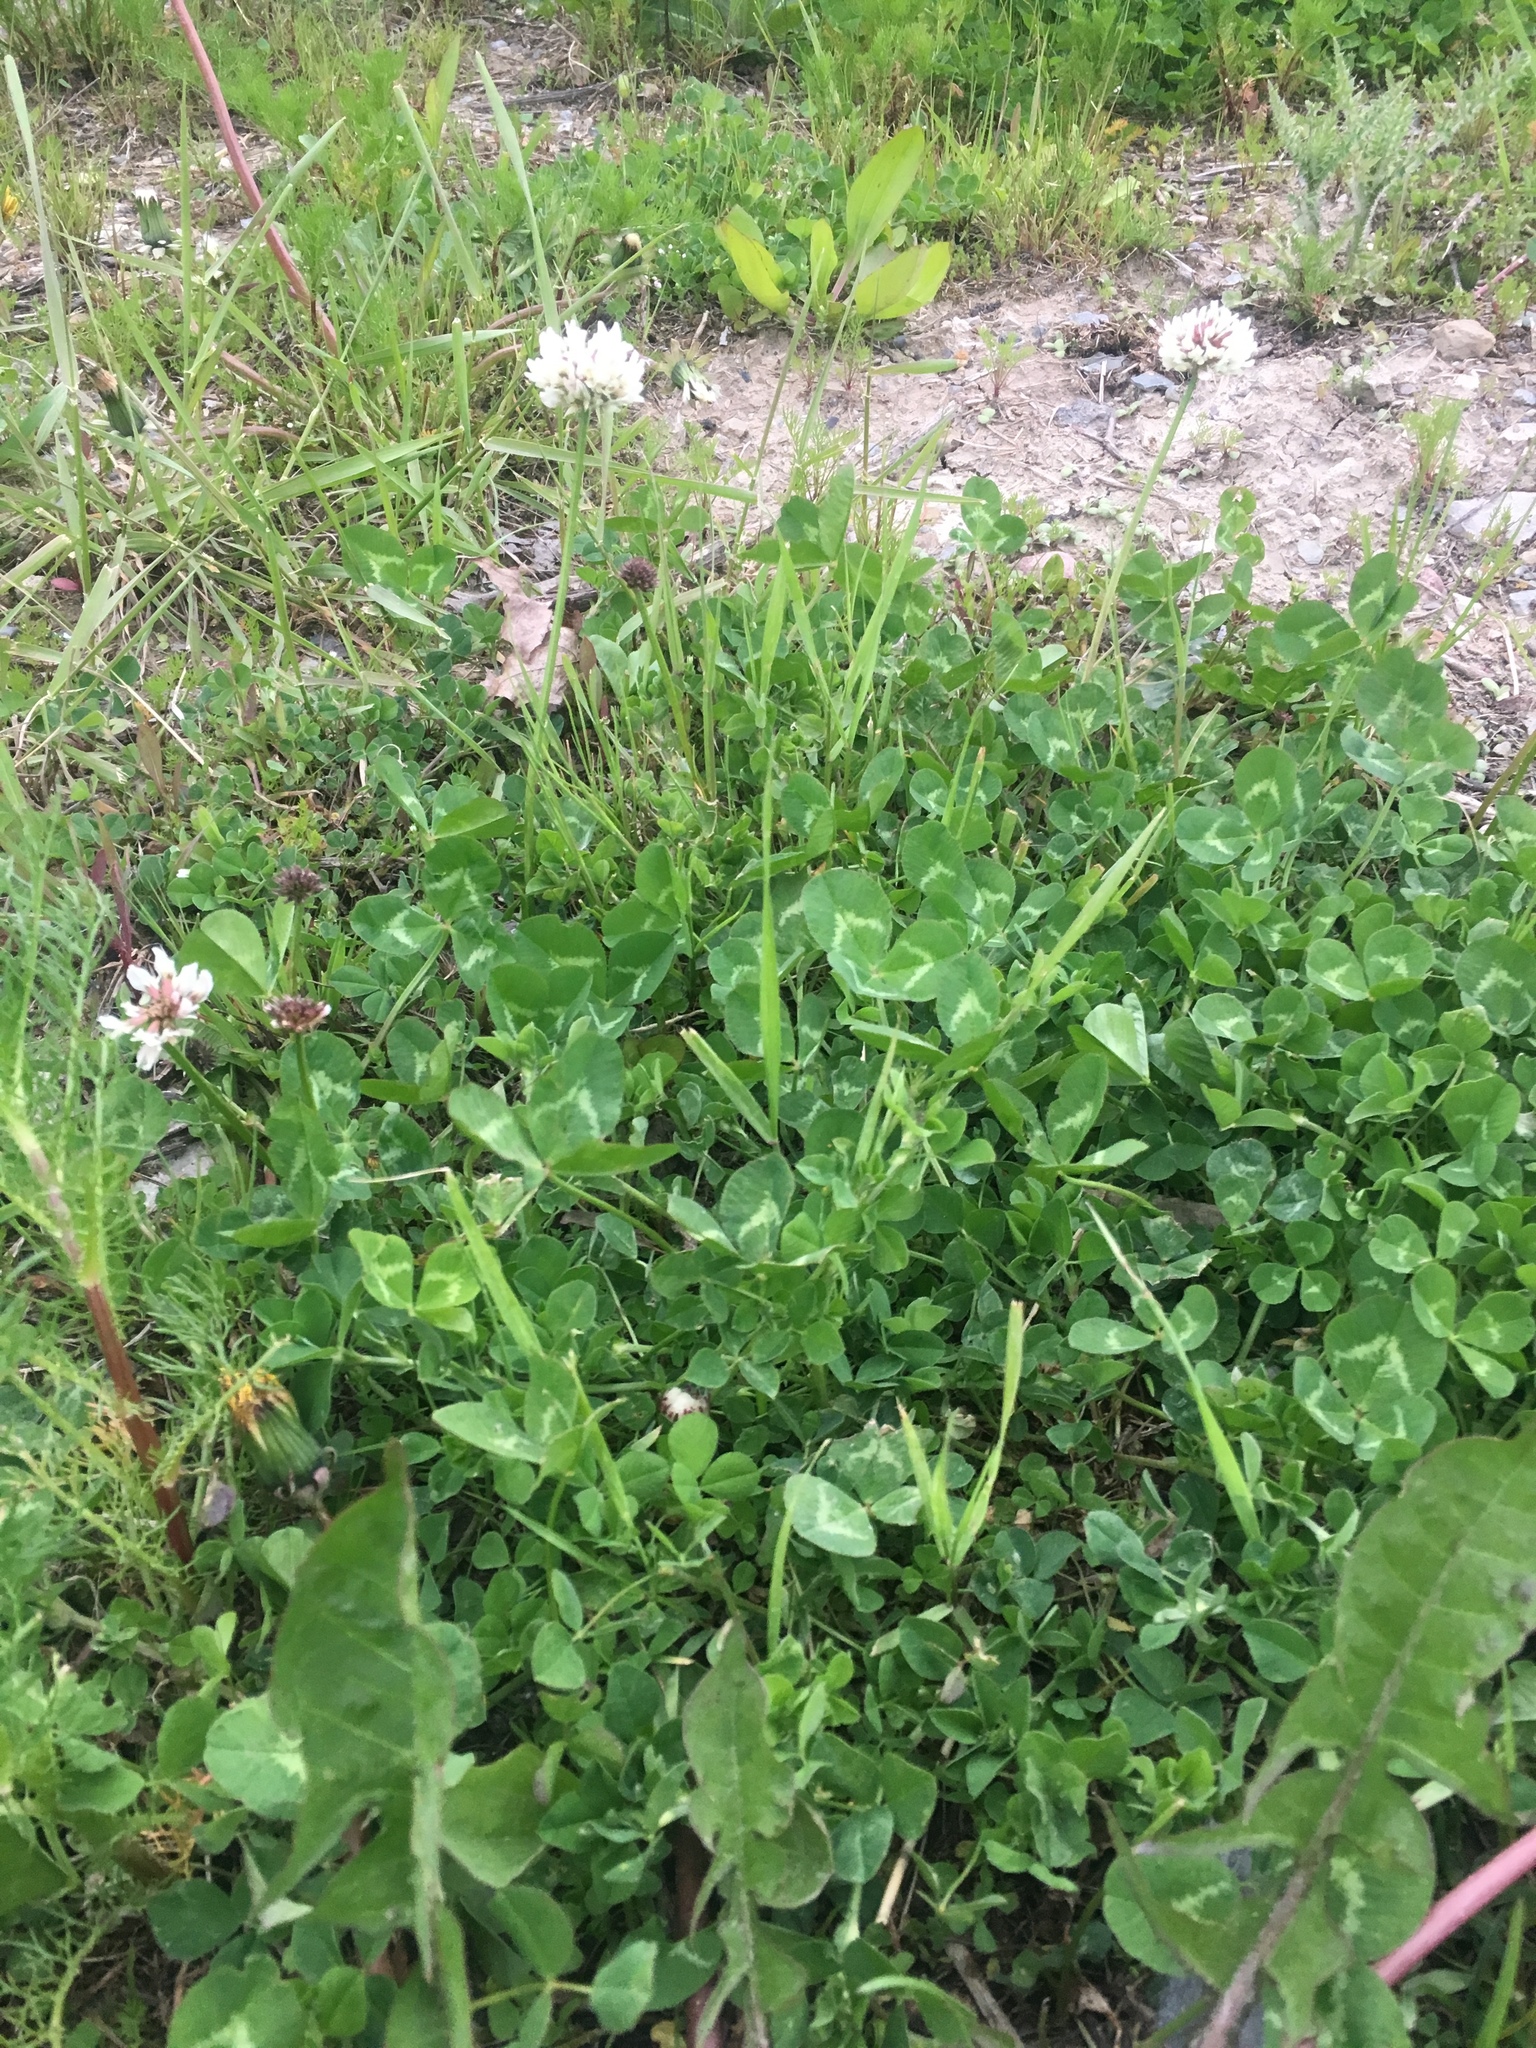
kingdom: Plantae
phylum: Tracheophyta
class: Magnoliopsida
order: Fabales
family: Fabaceae
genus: Trifolium
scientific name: Trifolium repens
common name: White clover
